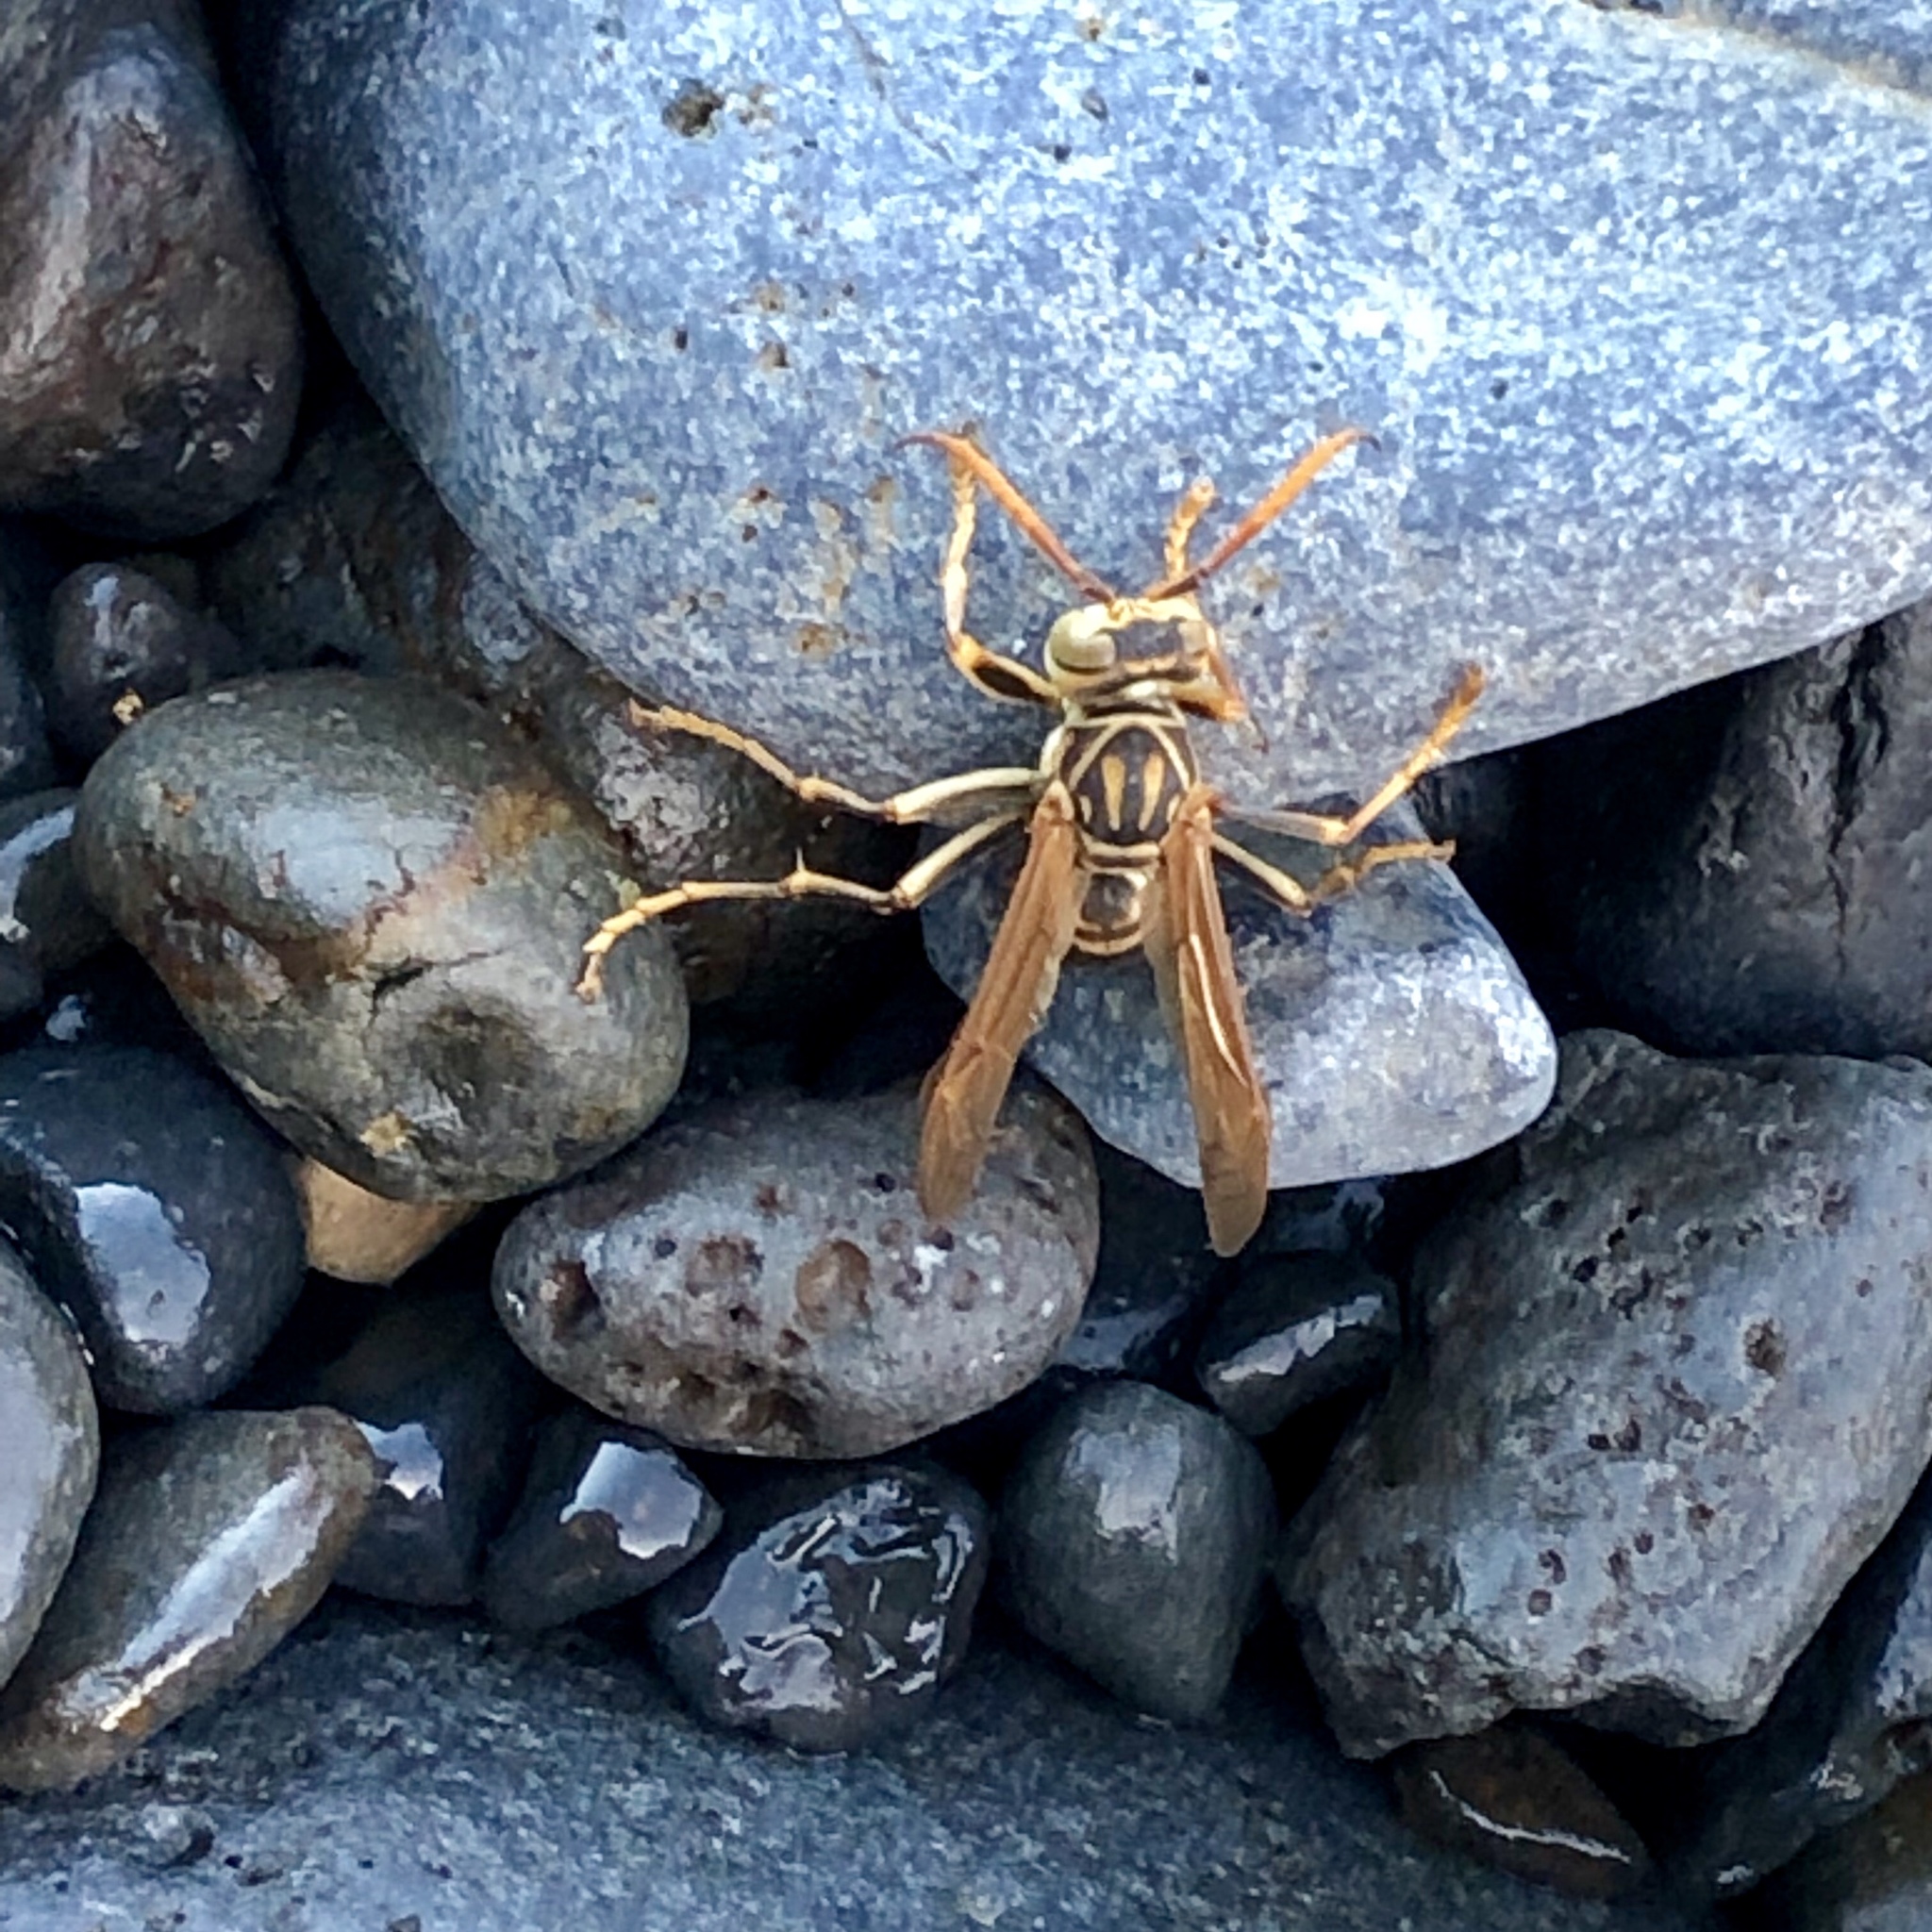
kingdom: Animalia
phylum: Arthropoda
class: Insecta
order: Hymenoptera
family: Eumenidae
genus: Polistes
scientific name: Polistes jokahamae
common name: Paper wasp
